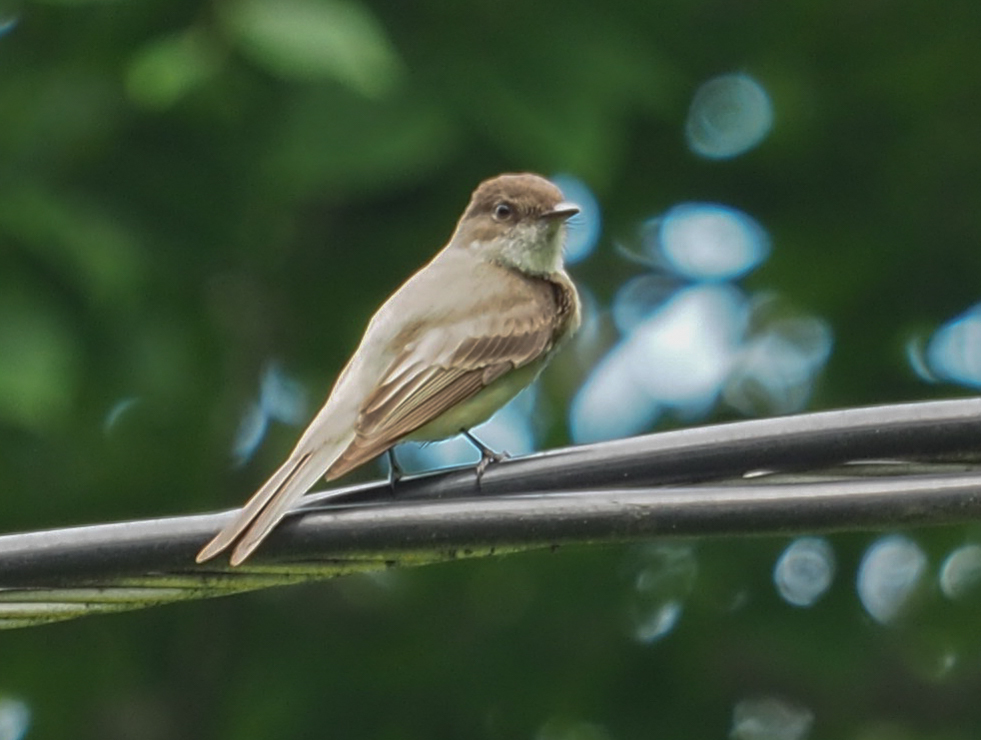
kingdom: Animalia
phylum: Chordata
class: Aves
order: Passeriformes
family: Tyrannidae
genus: Sayornis
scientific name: Sayornis phoebe
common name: Eastern phoebe
